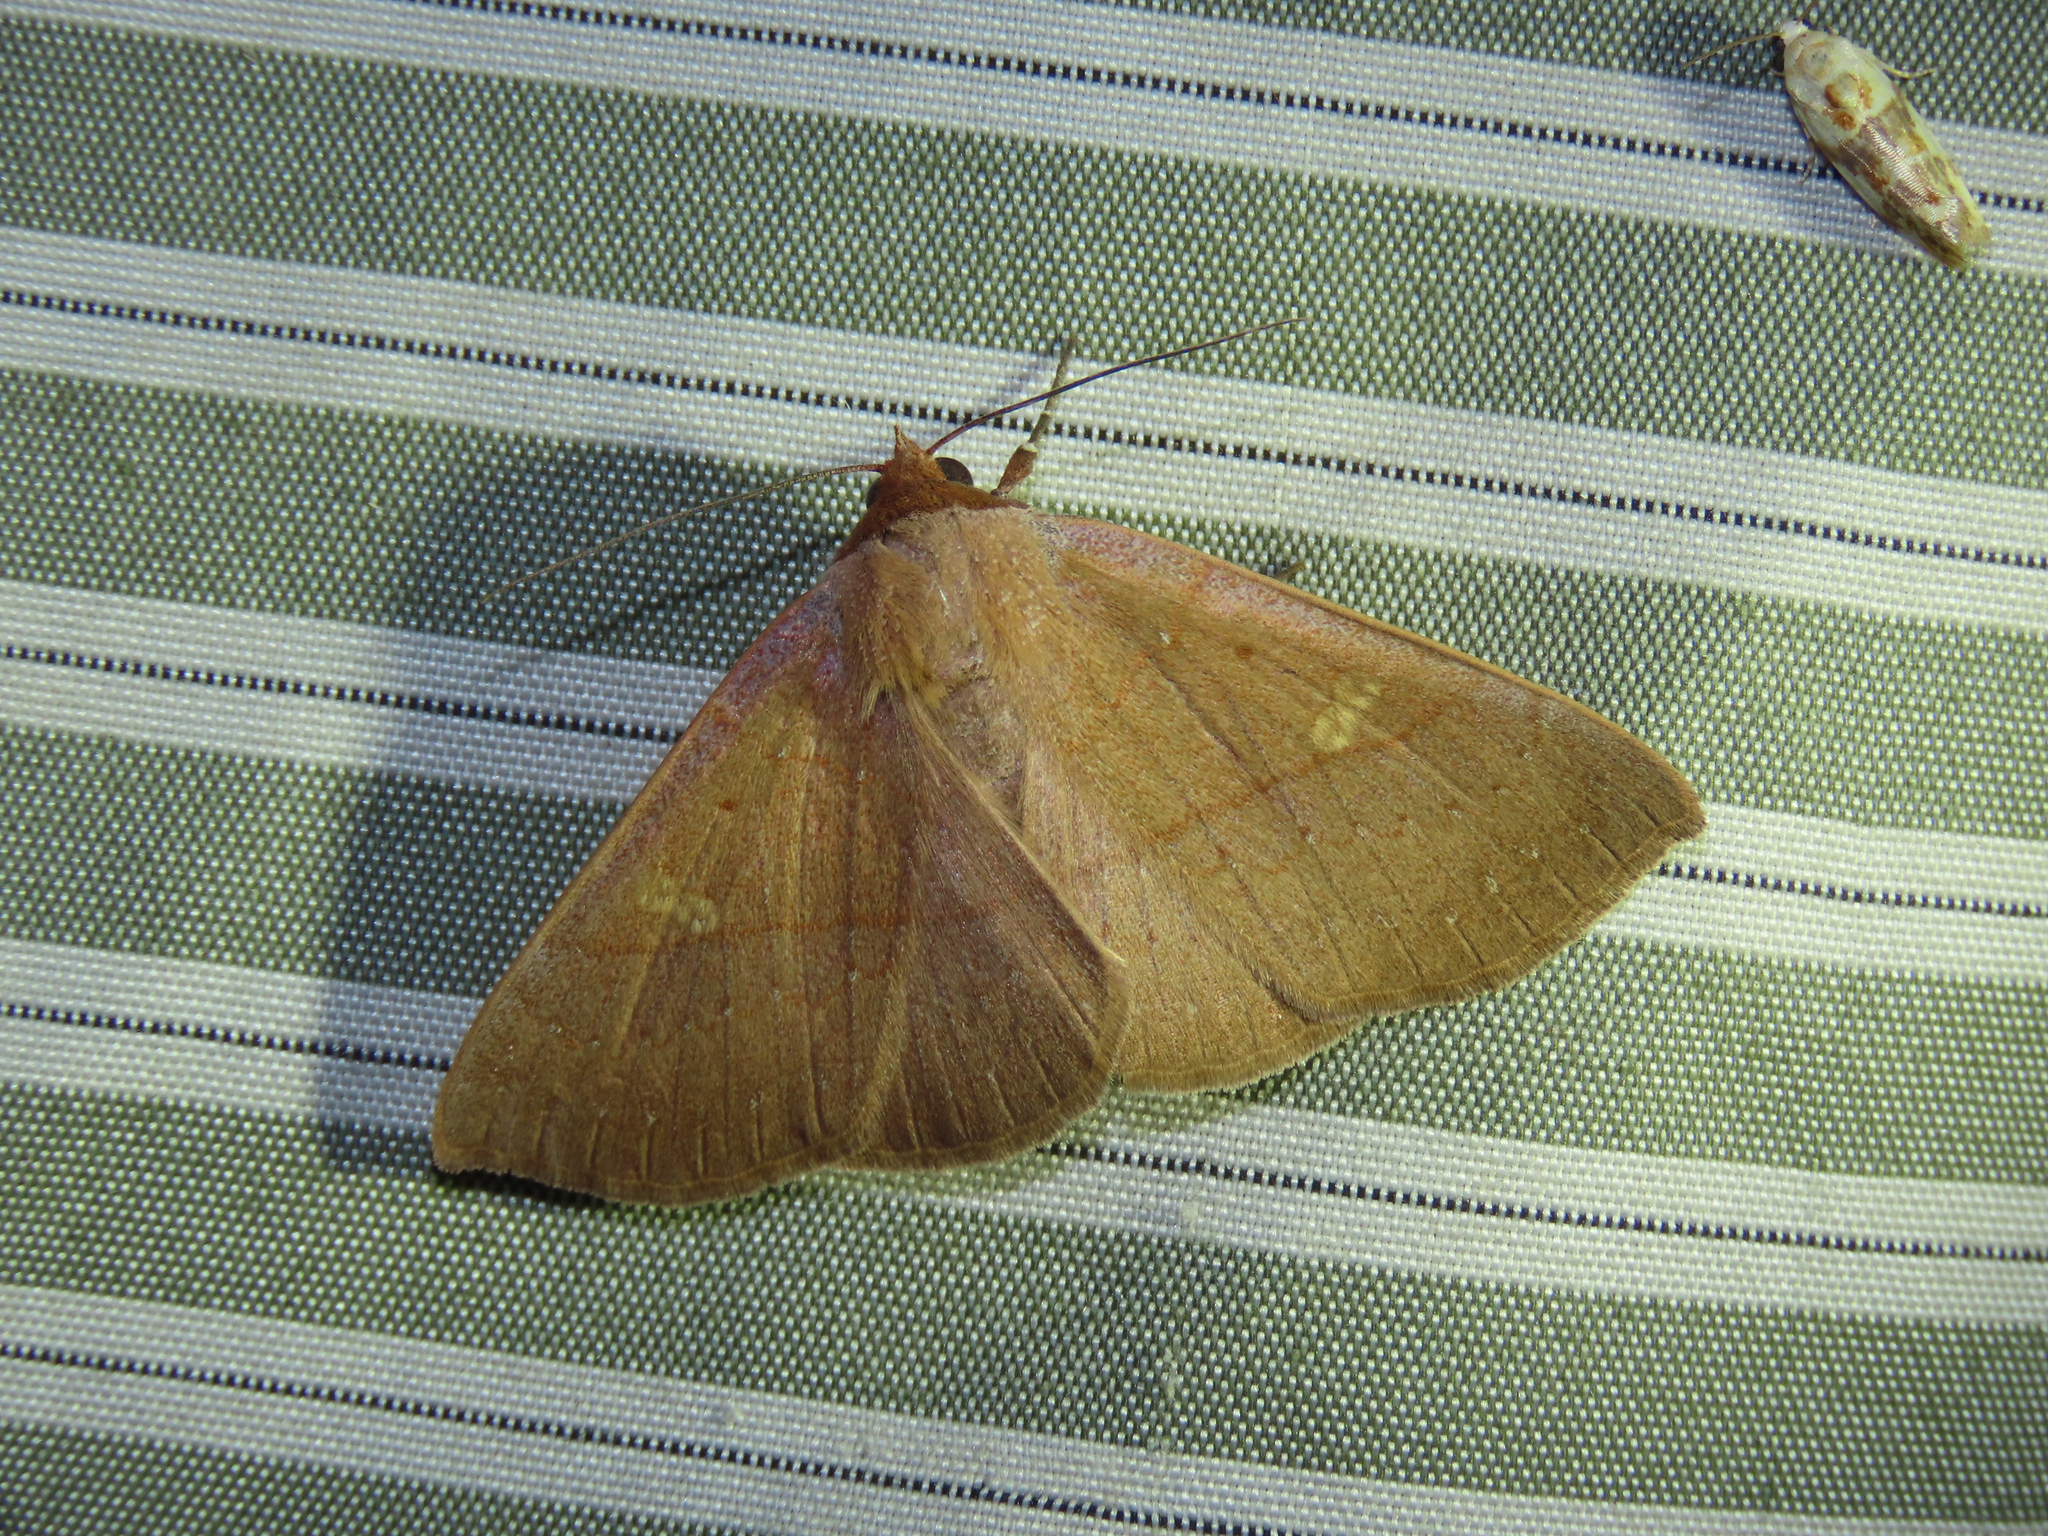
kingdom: Animalia
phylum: Arthropoda
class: Insecta
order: Lepidoptera
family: Erebidae
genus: Panopoda
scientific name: Panopoda rigida
